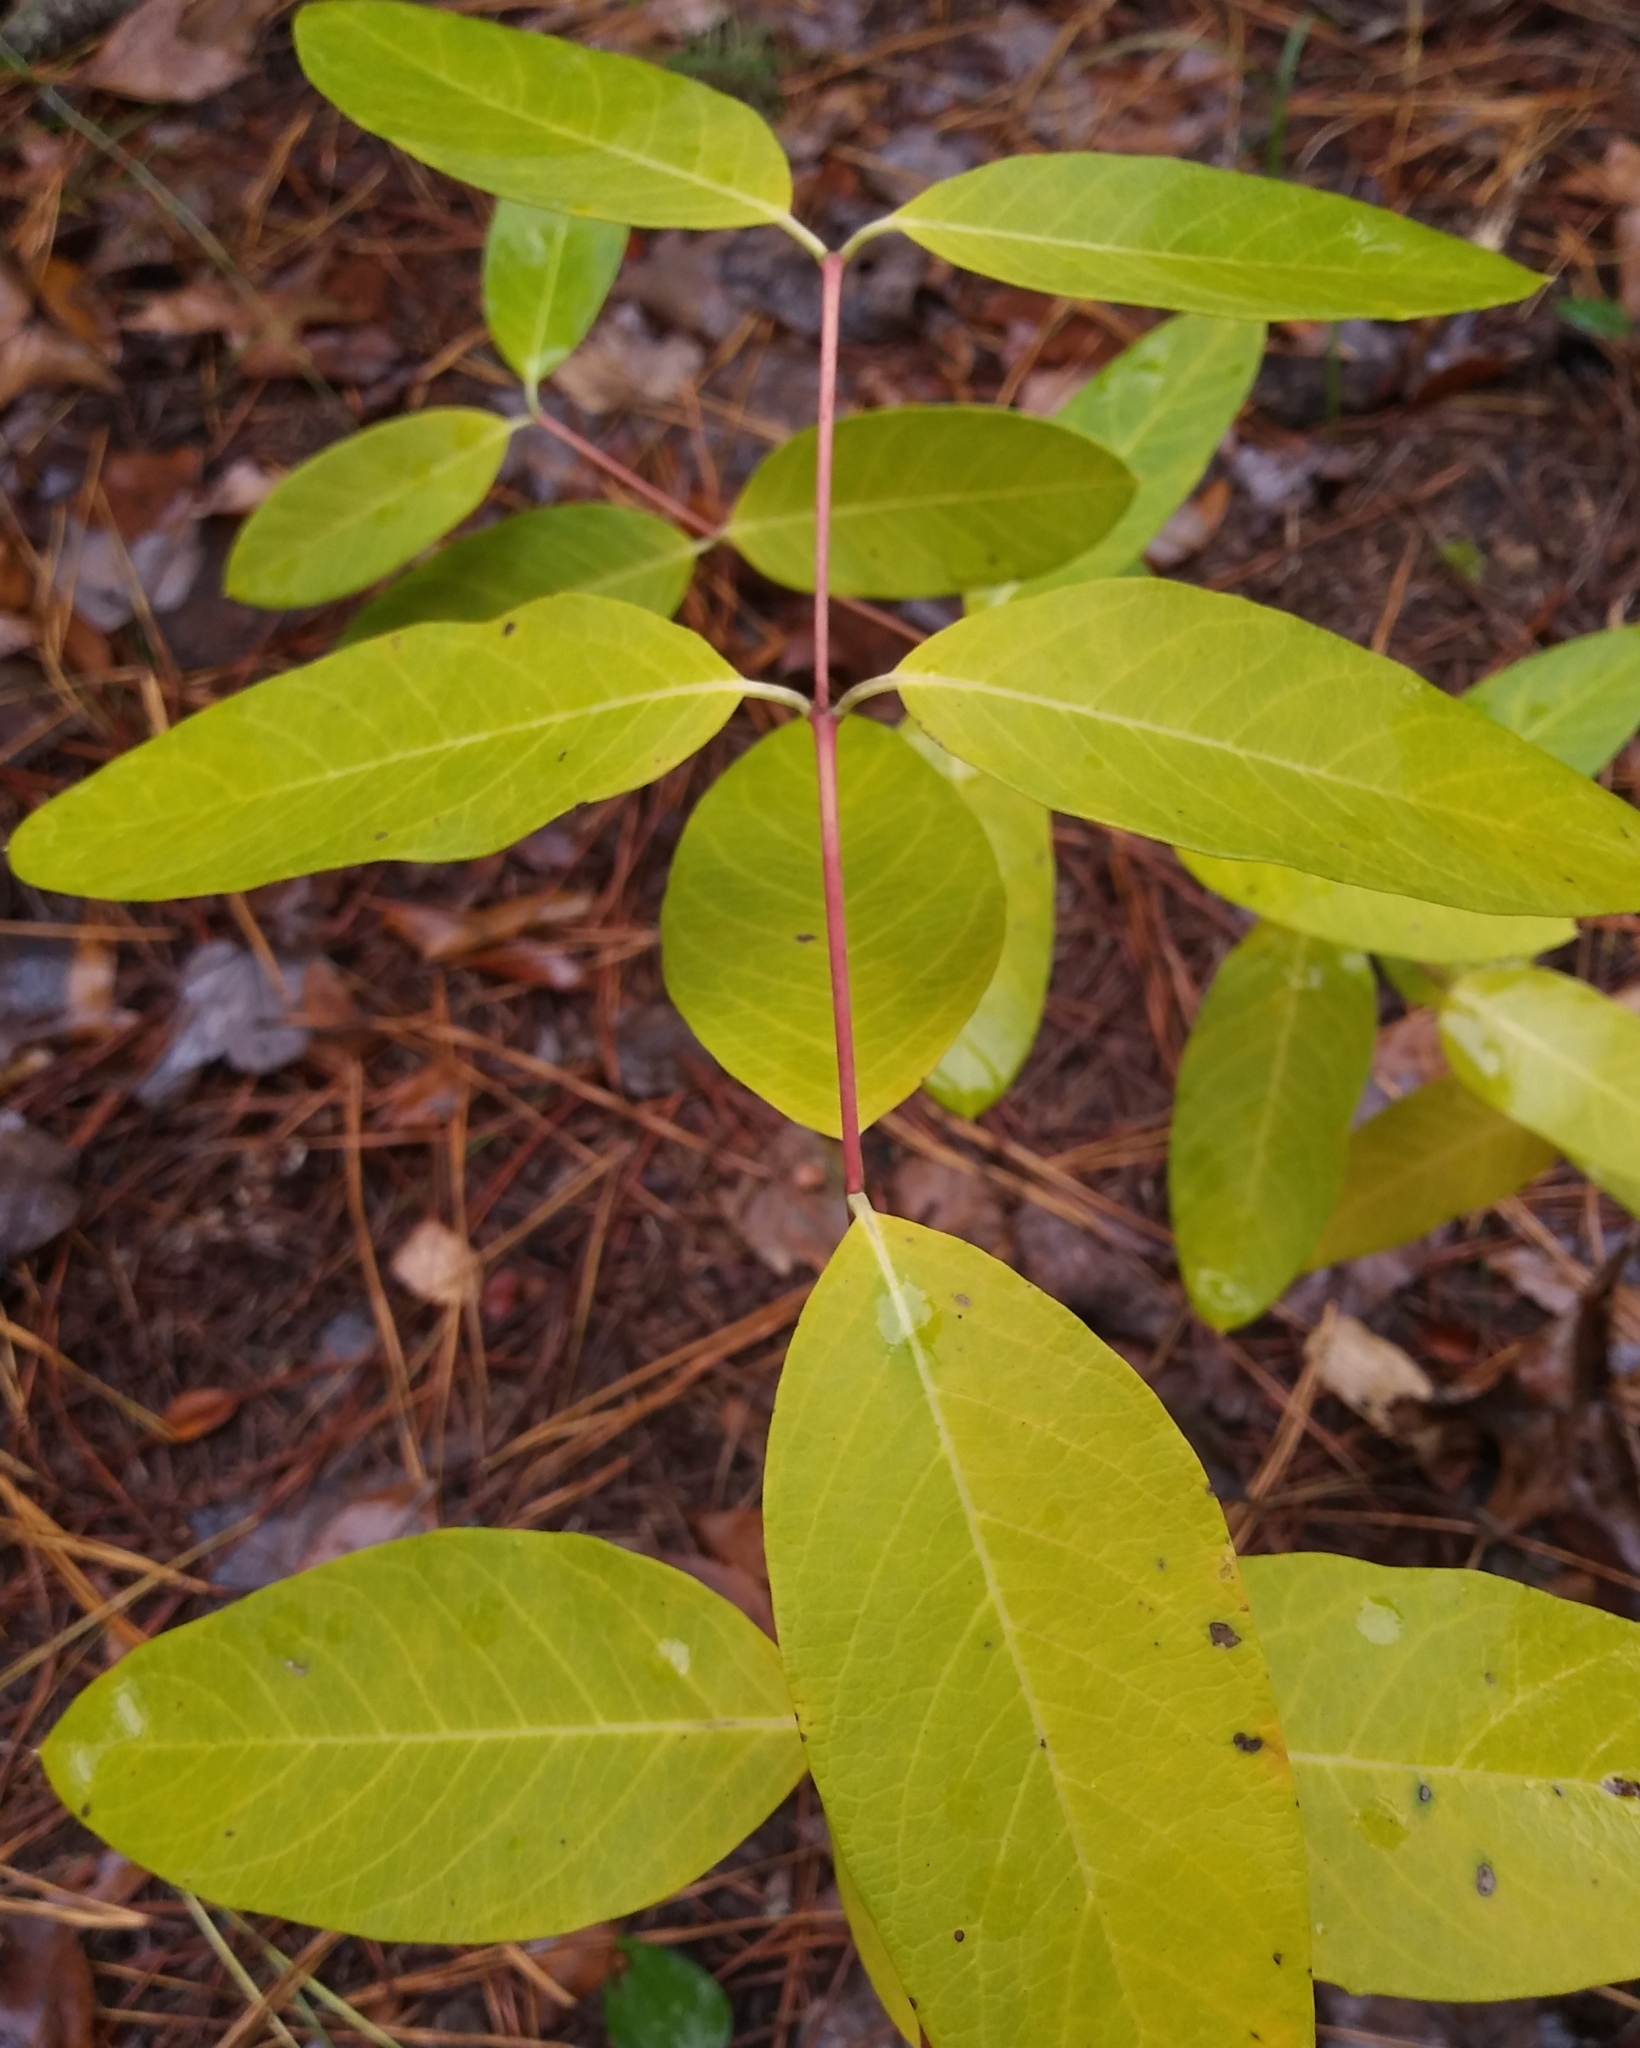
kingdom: Plantae
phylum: Tracheophyta
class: Magnoliopsida
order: Gentianales
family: Apocynaceae
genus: Apocynum
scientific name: Apocynum cannabinum
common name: Hemp dogbane
